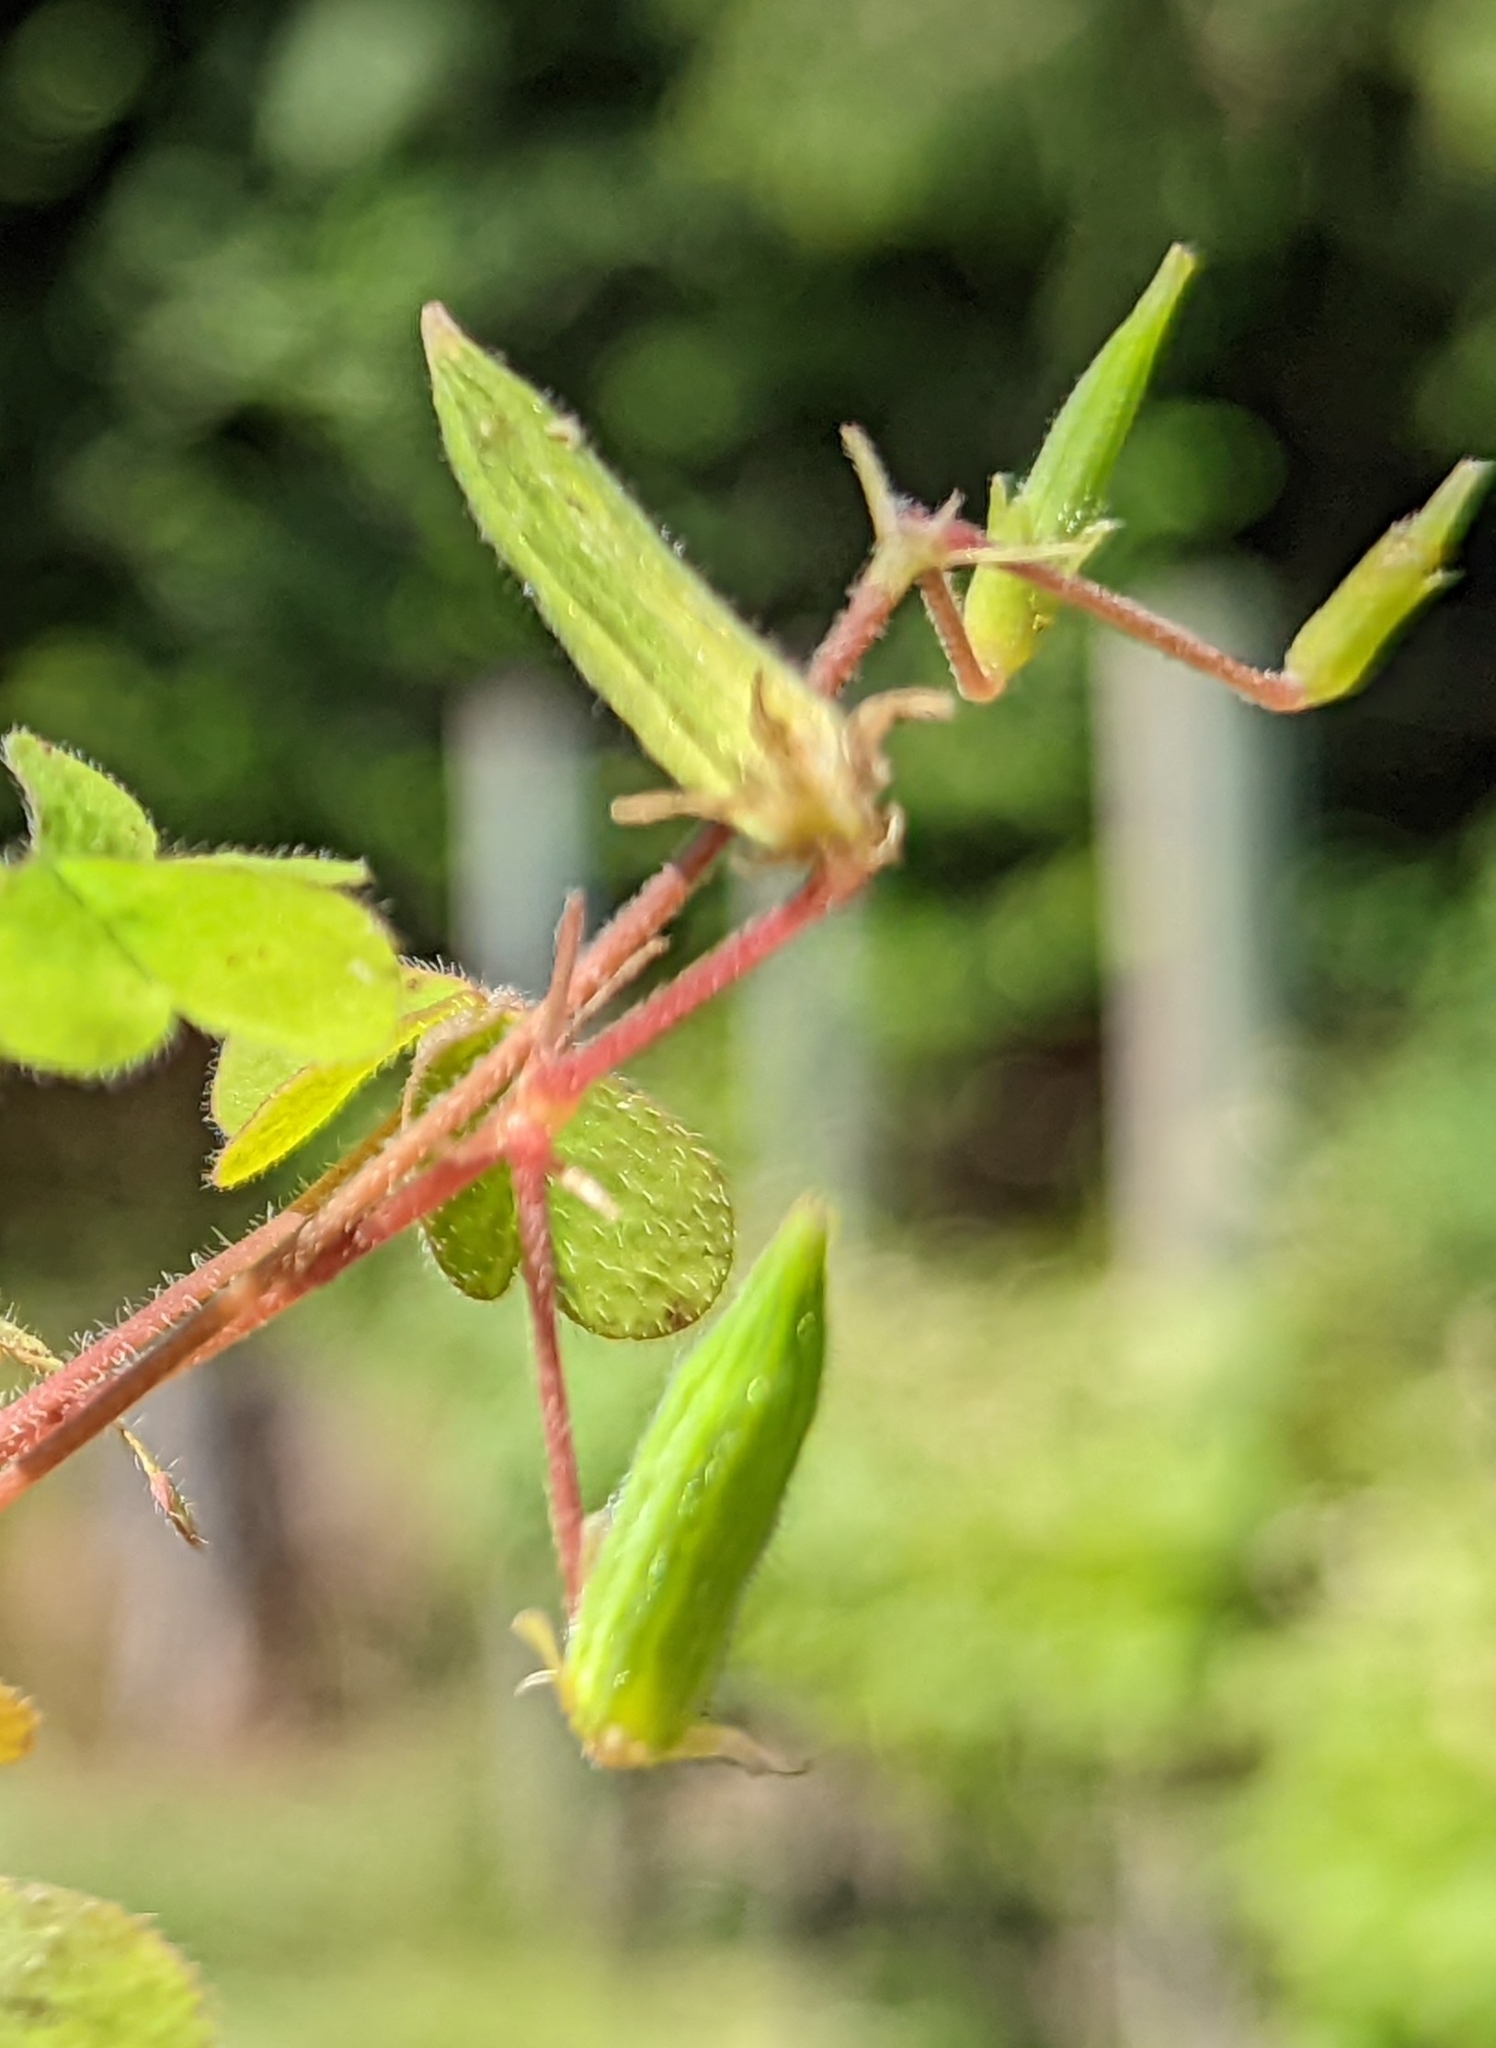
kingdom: Plantae
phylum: Tracheophyta
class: Magnoliopsida
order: Oxalidales
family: Oxalidaceae
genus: Oxalis
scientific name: Oxalis corniculata
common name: Procumbent yellow-sorrel
